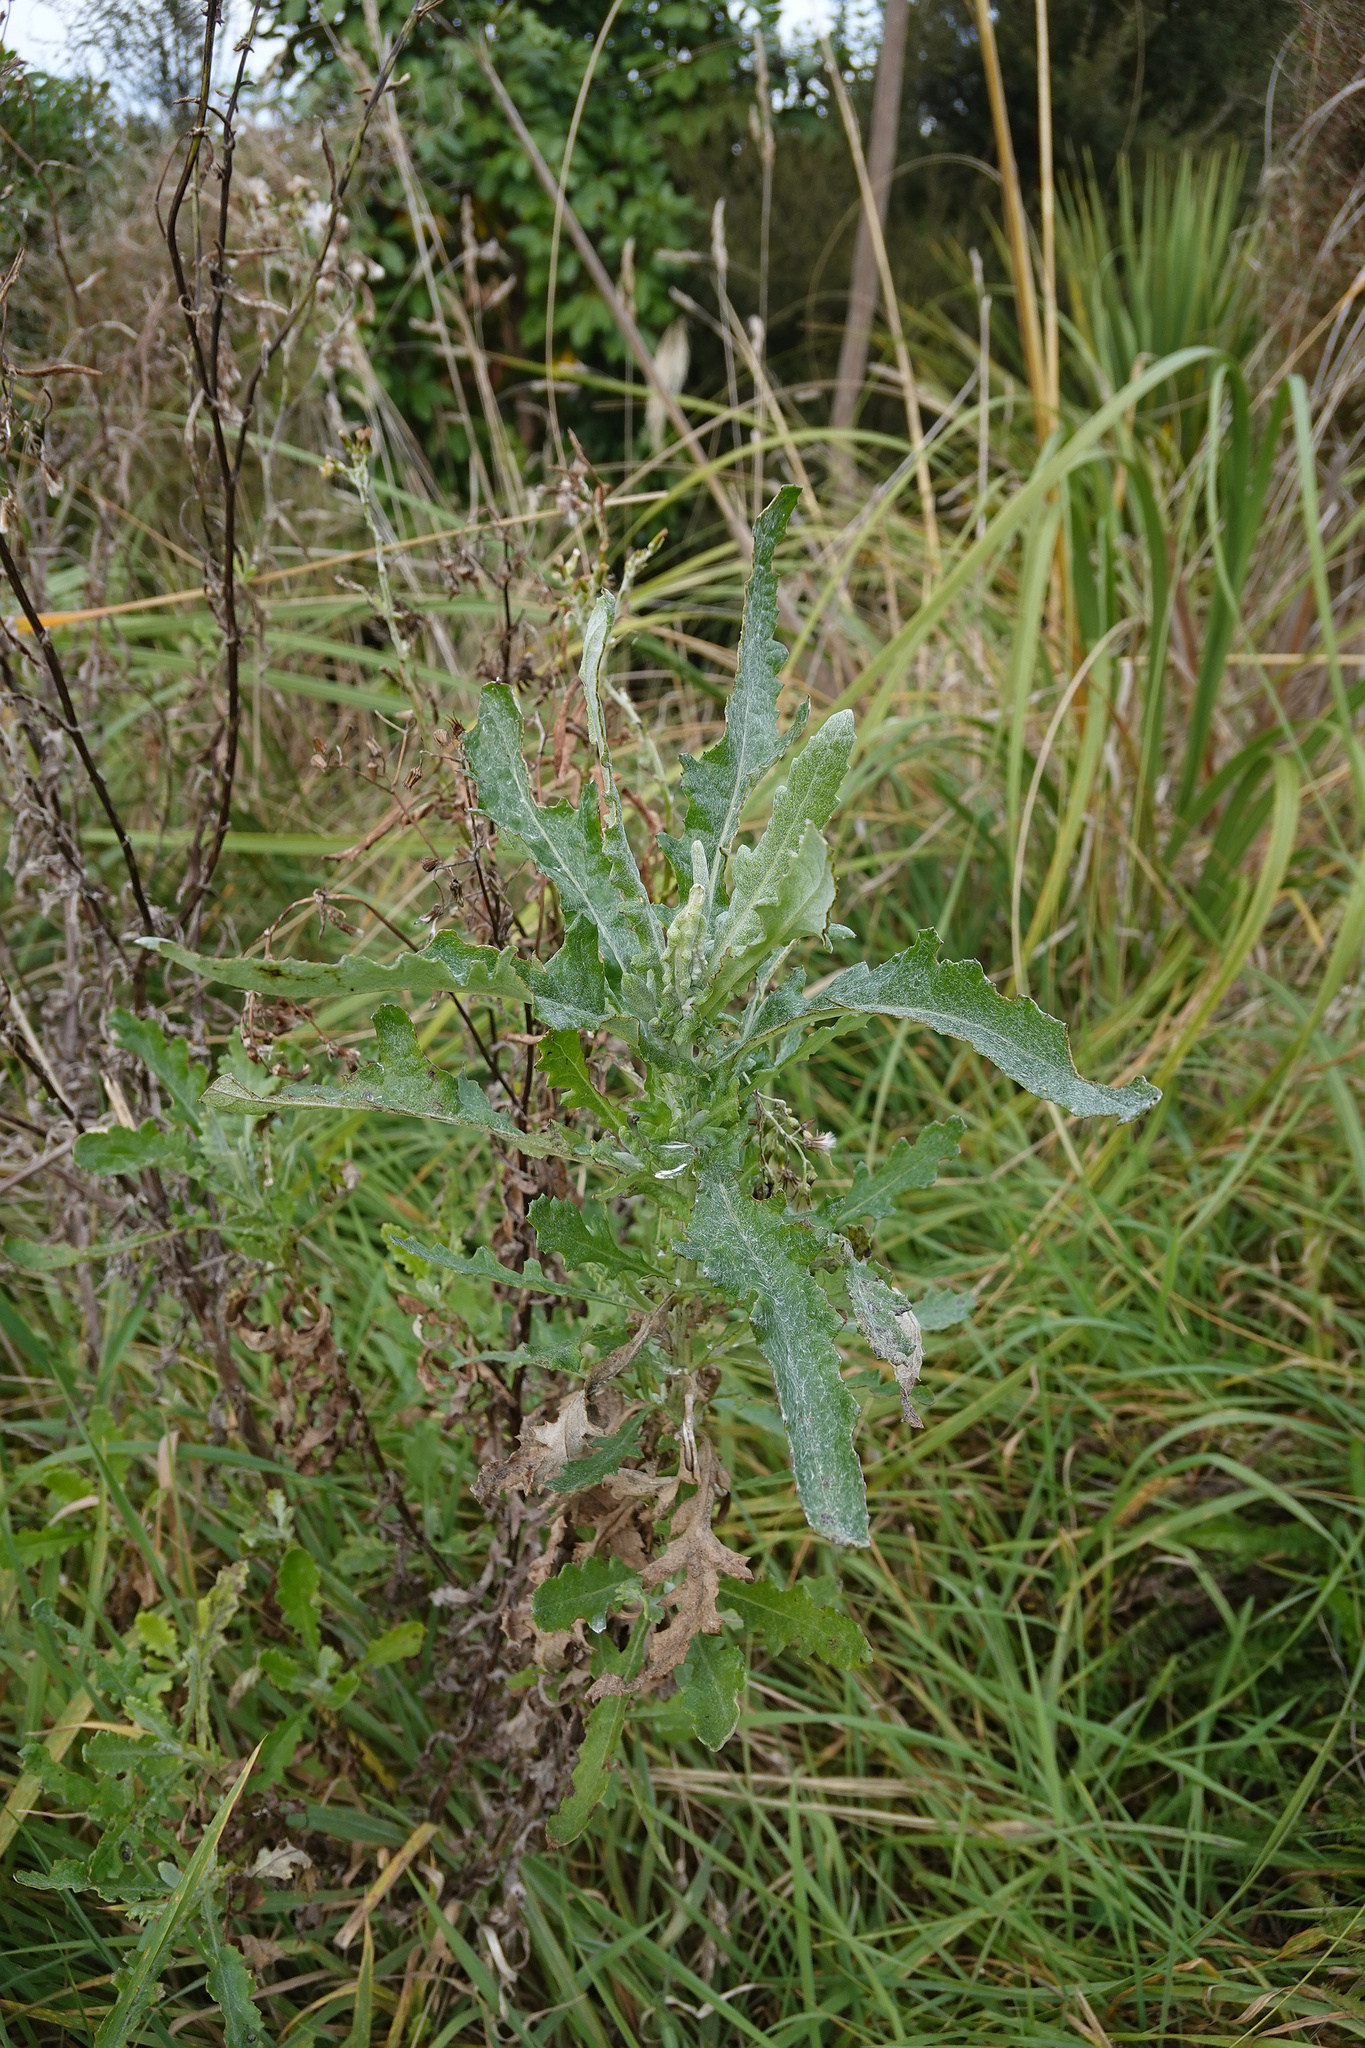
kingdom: Plantae
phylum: Tracheophyta
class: Magnoliopsida
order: Asterales
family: Asteraceae
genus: Senecio
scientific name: Senecio glomeratus
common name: Cutleaf burnweed
